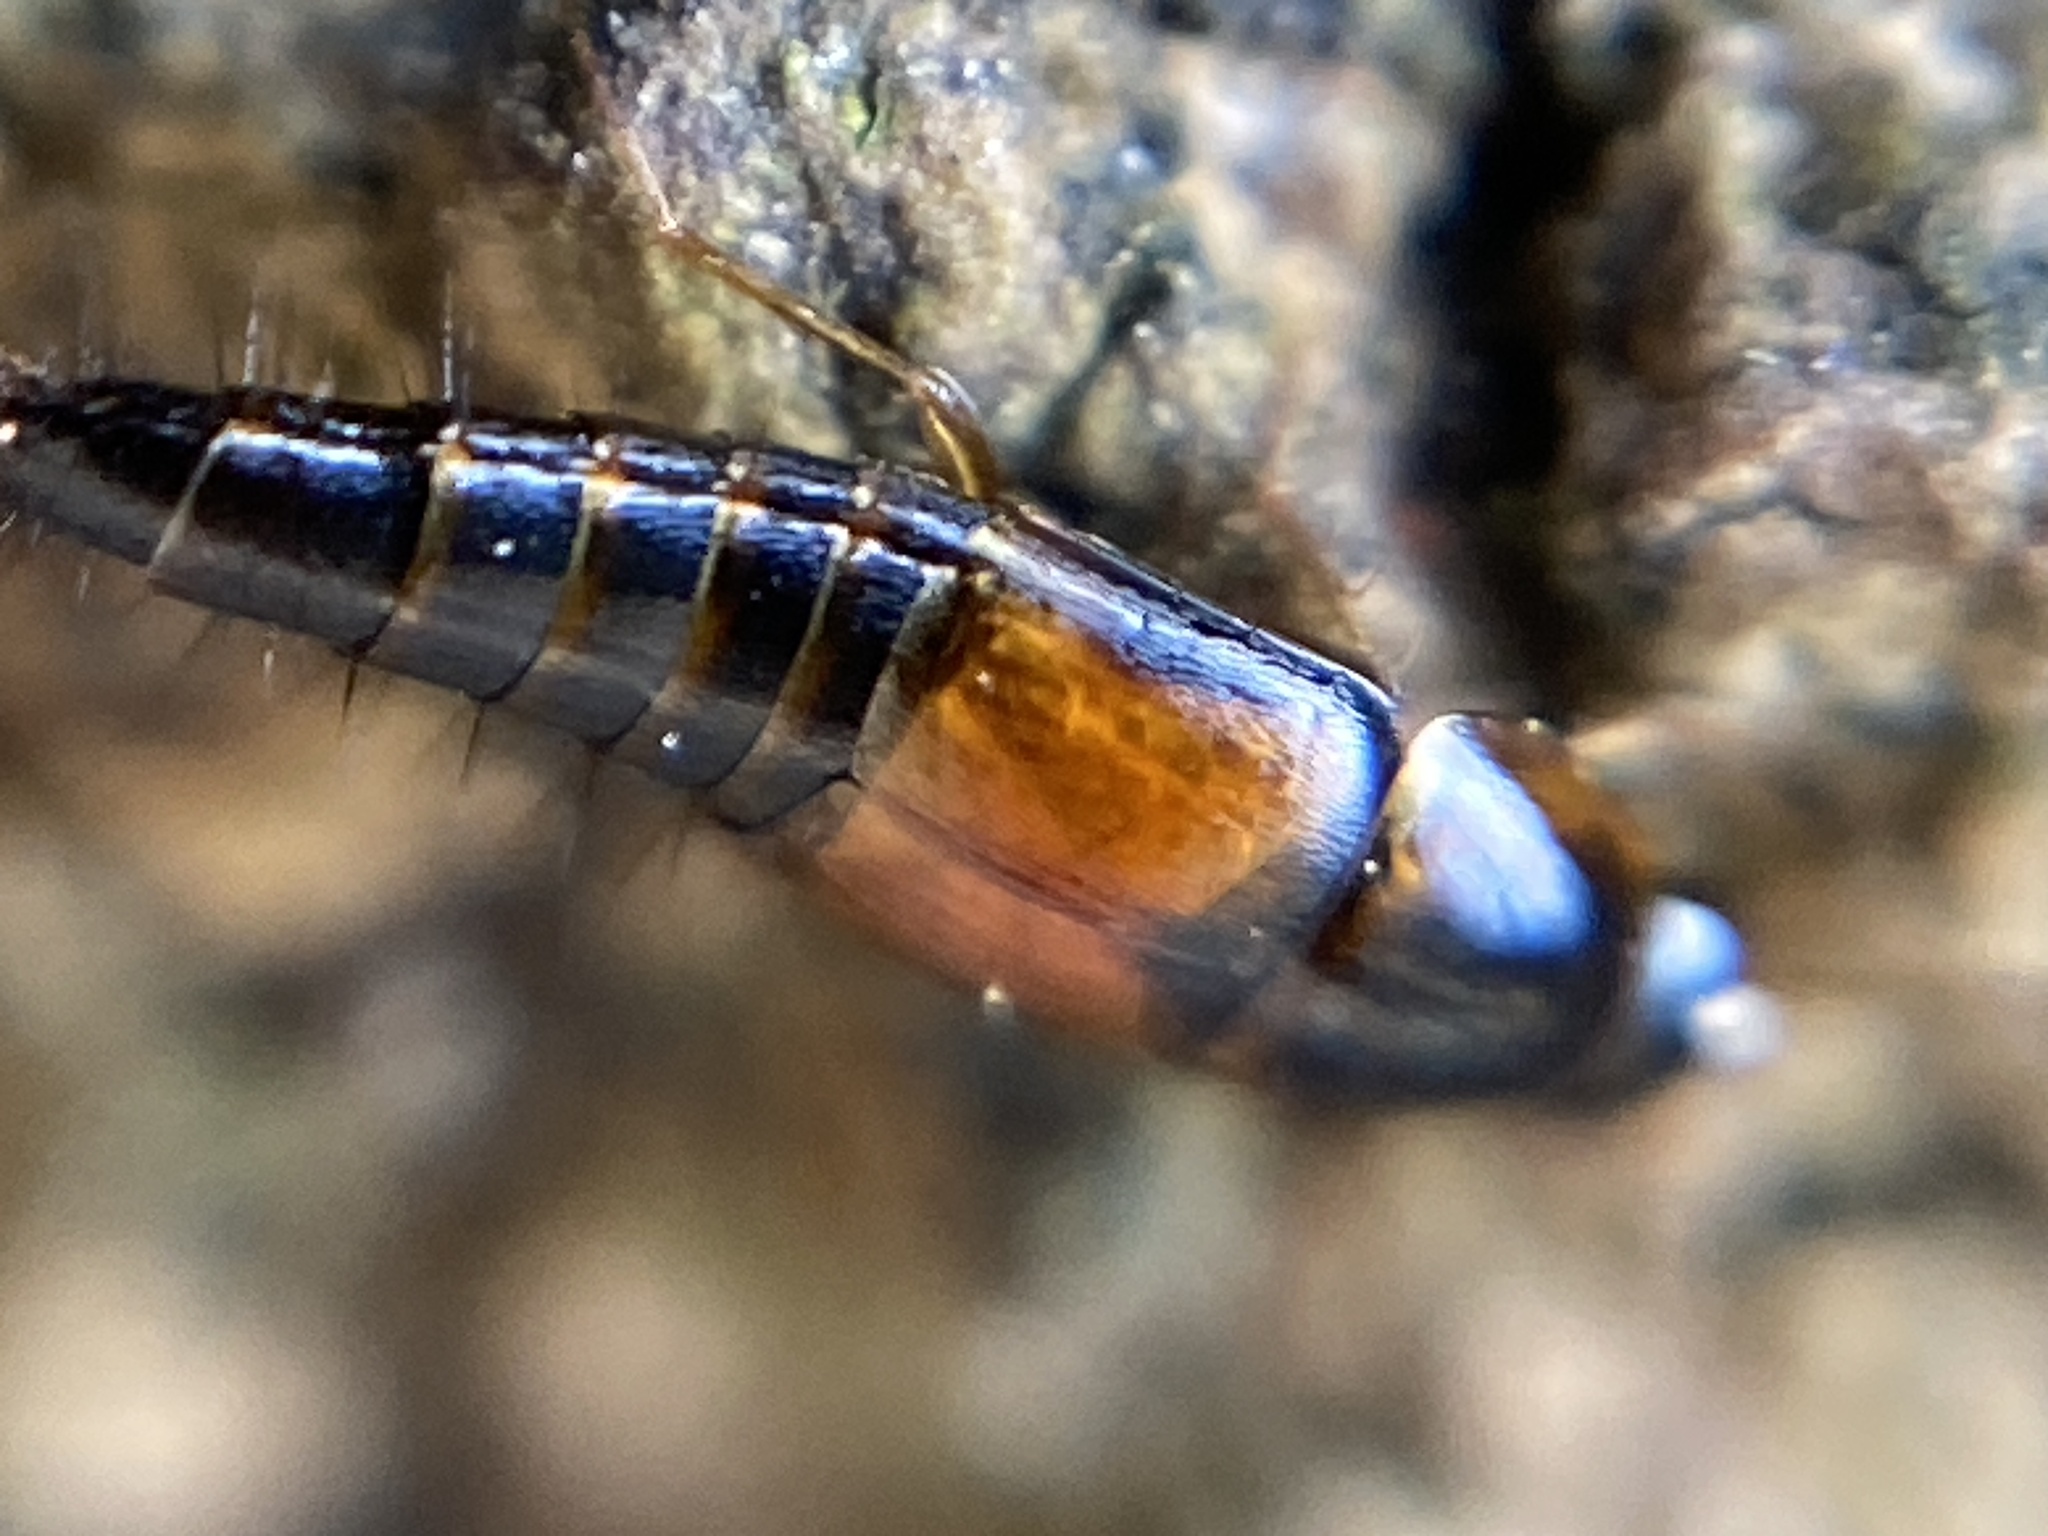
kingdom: Animalia
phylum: Arthropoda
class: Insecta
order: Coleoptera
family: Staphylinidae
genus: Tachyporus
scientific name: Tachyporus hypnorum
